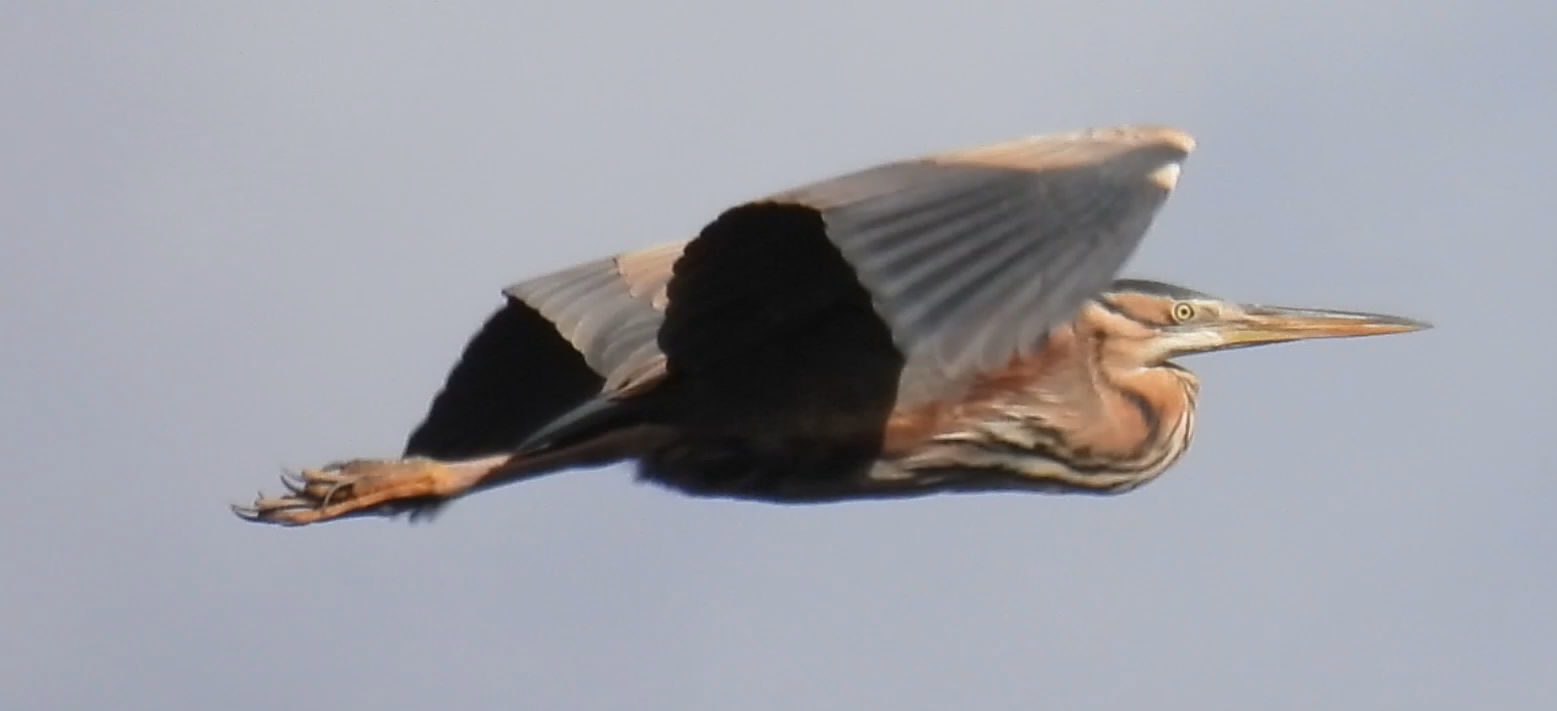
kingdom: Animalia
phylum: Chordata
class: Aves
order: Pelecaniformes
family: Ardeidae
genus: Ardea
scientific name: Ardea purpurea
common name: Purple heron
